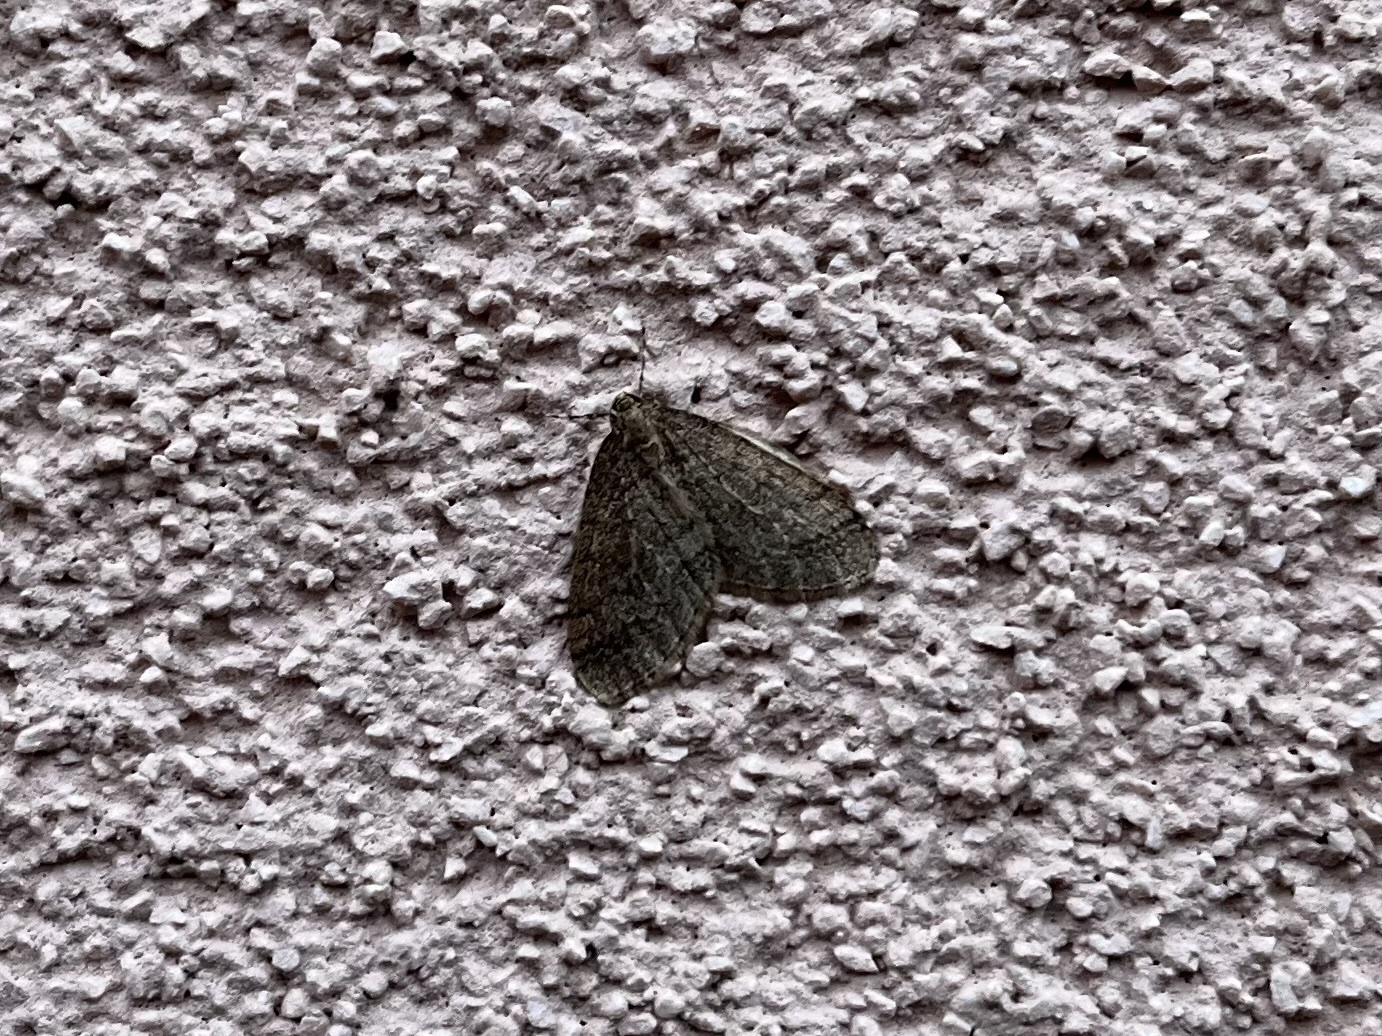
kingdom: Animalia
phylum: Arthropoda
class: Insecta
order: Lepidoptera
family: Geometridae
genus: Operophtera
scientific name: Operophtera brumata
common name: Winter moth
